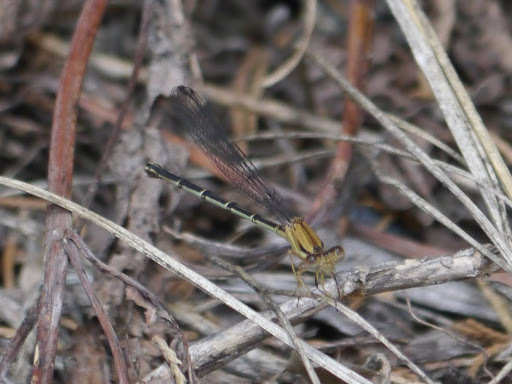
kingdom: Animalia
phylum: Arthropoda
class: Insecta
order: Odonata
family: Coenagrionidae
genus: Argia
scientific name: Argia apicalis
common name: Blue-fronted dancer
